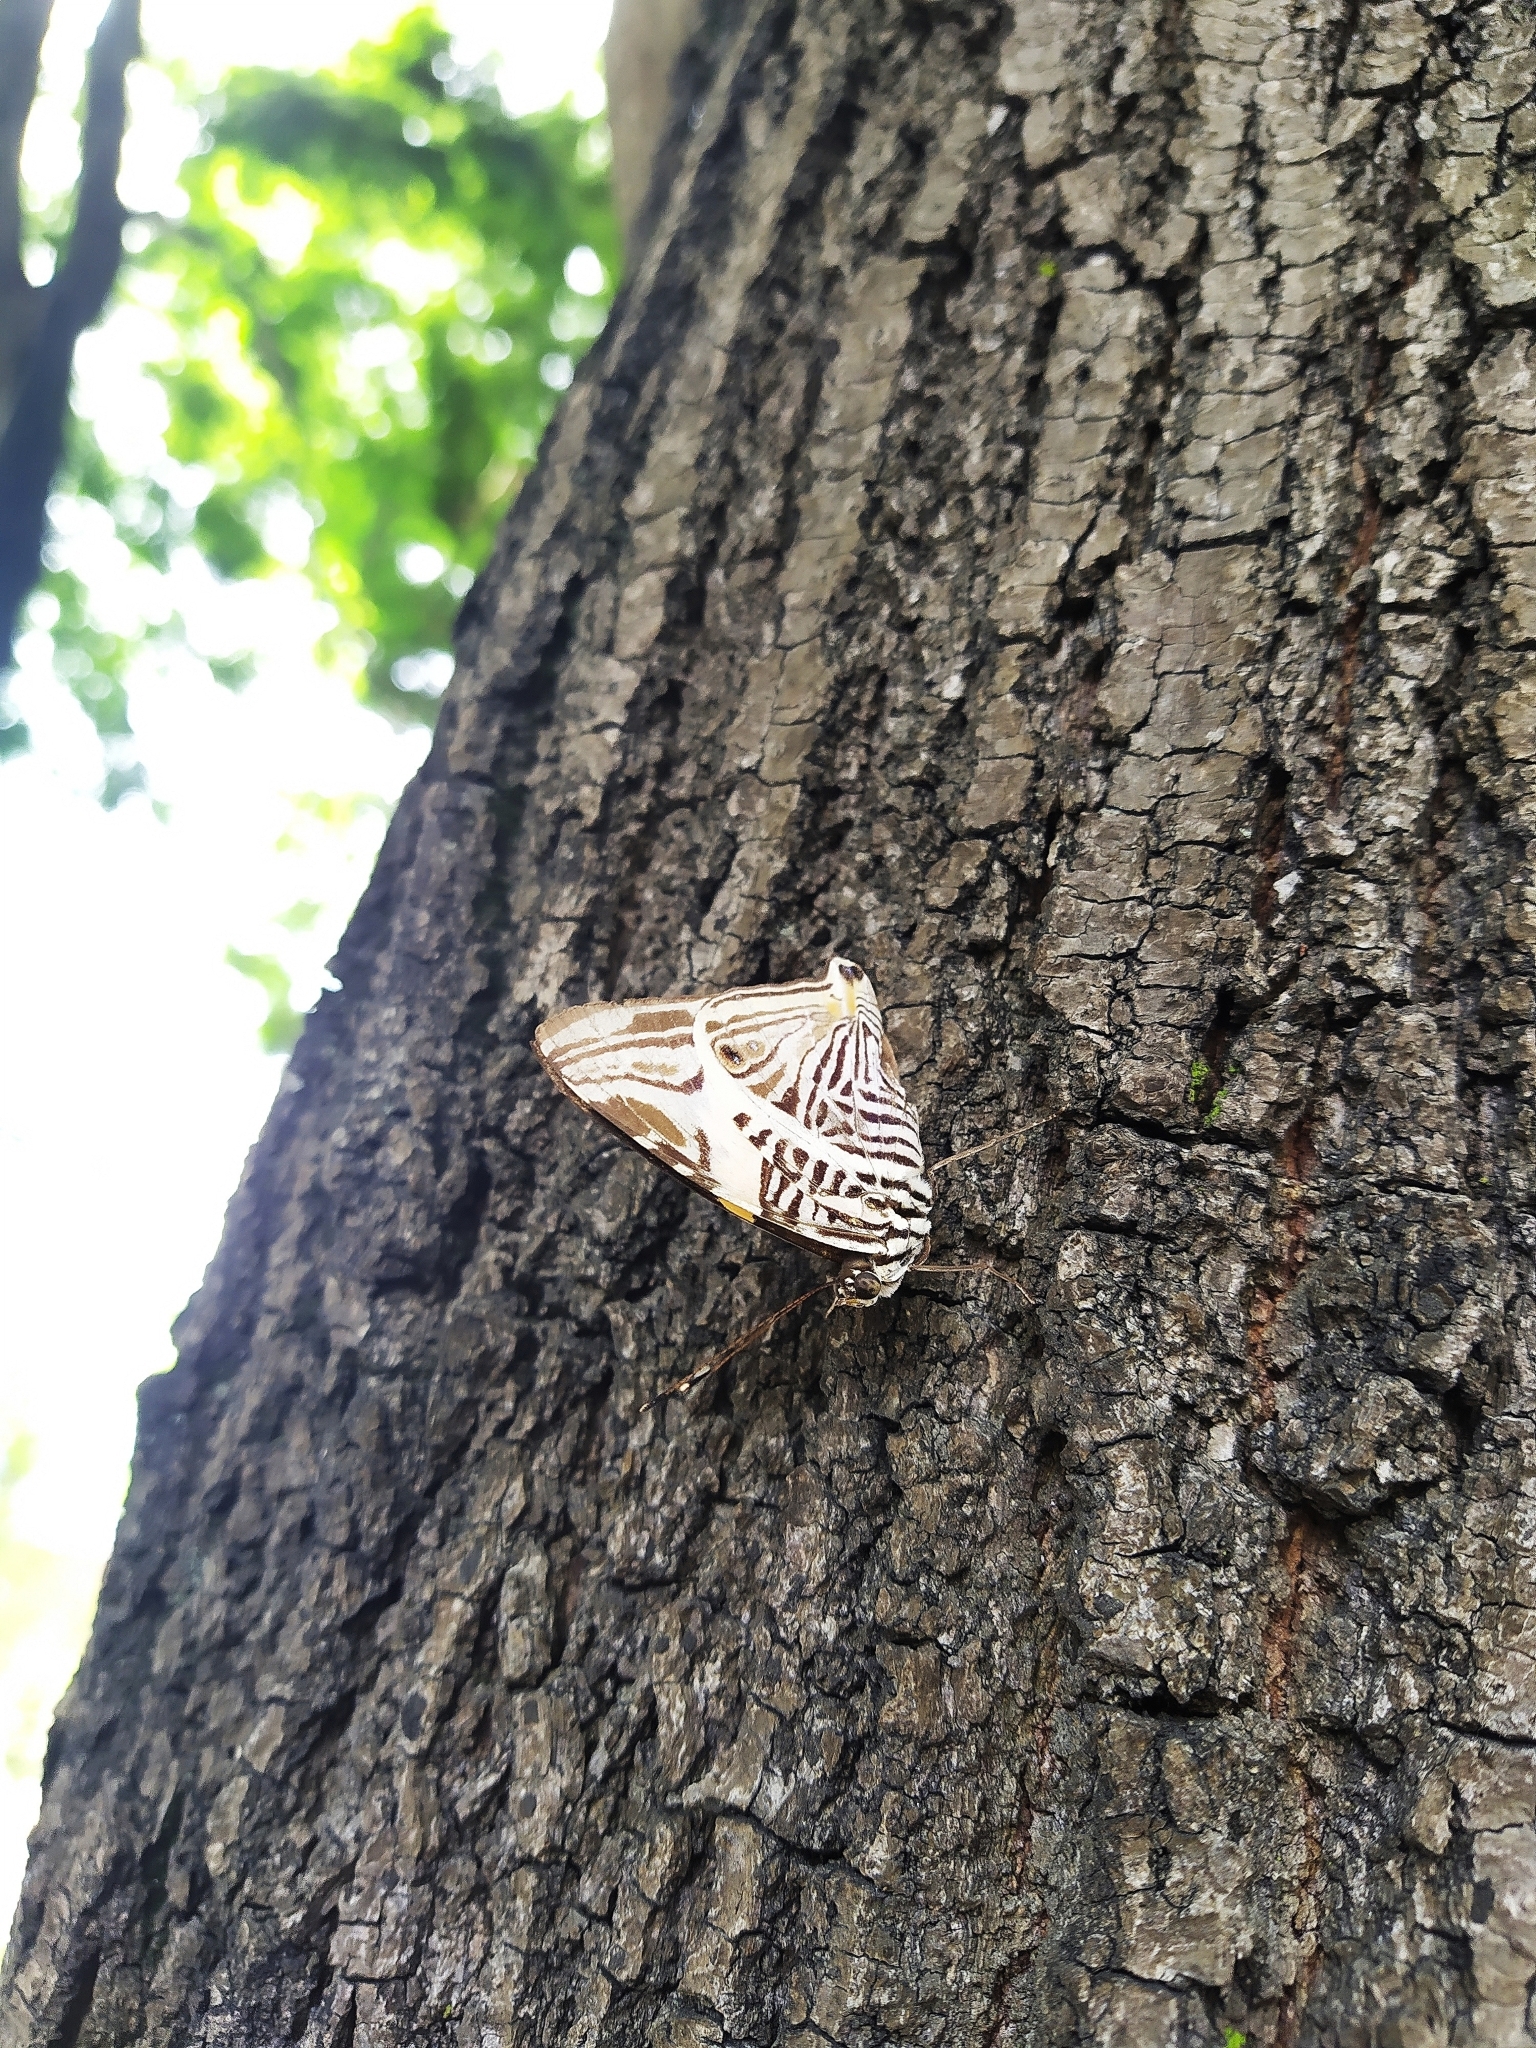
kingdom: Animalia
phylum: Arthropoda
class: Insecta
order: Lepidoptera
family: Nymphalidae
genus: Colobura
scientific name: Colobura dirce
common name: Dirce beauty
